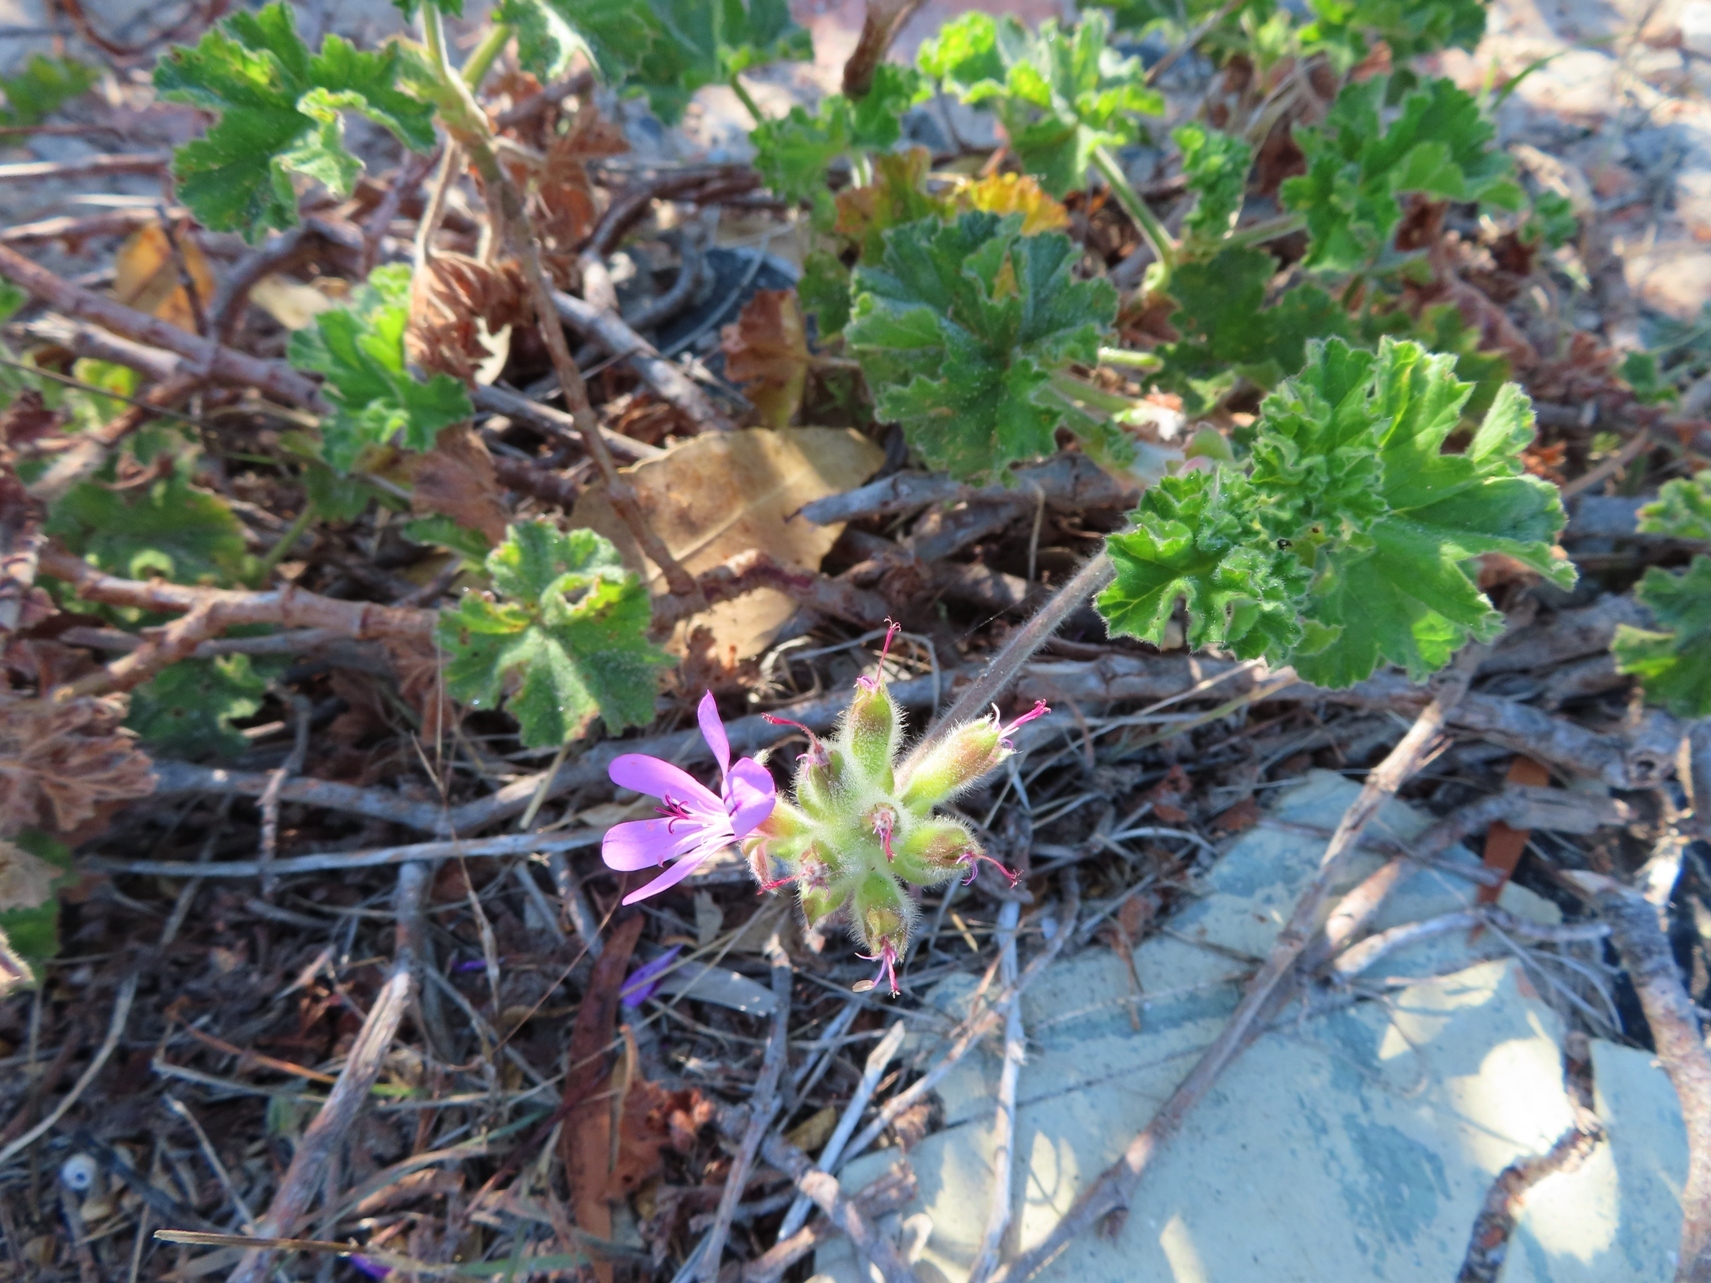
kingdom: Plantae
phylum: Tracheophyta
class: Magnoliopsida
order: Geraniales
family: Geraniaceae
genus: Pelargonium
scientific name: Pelargonium capitatum
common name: Rose scented geranium
